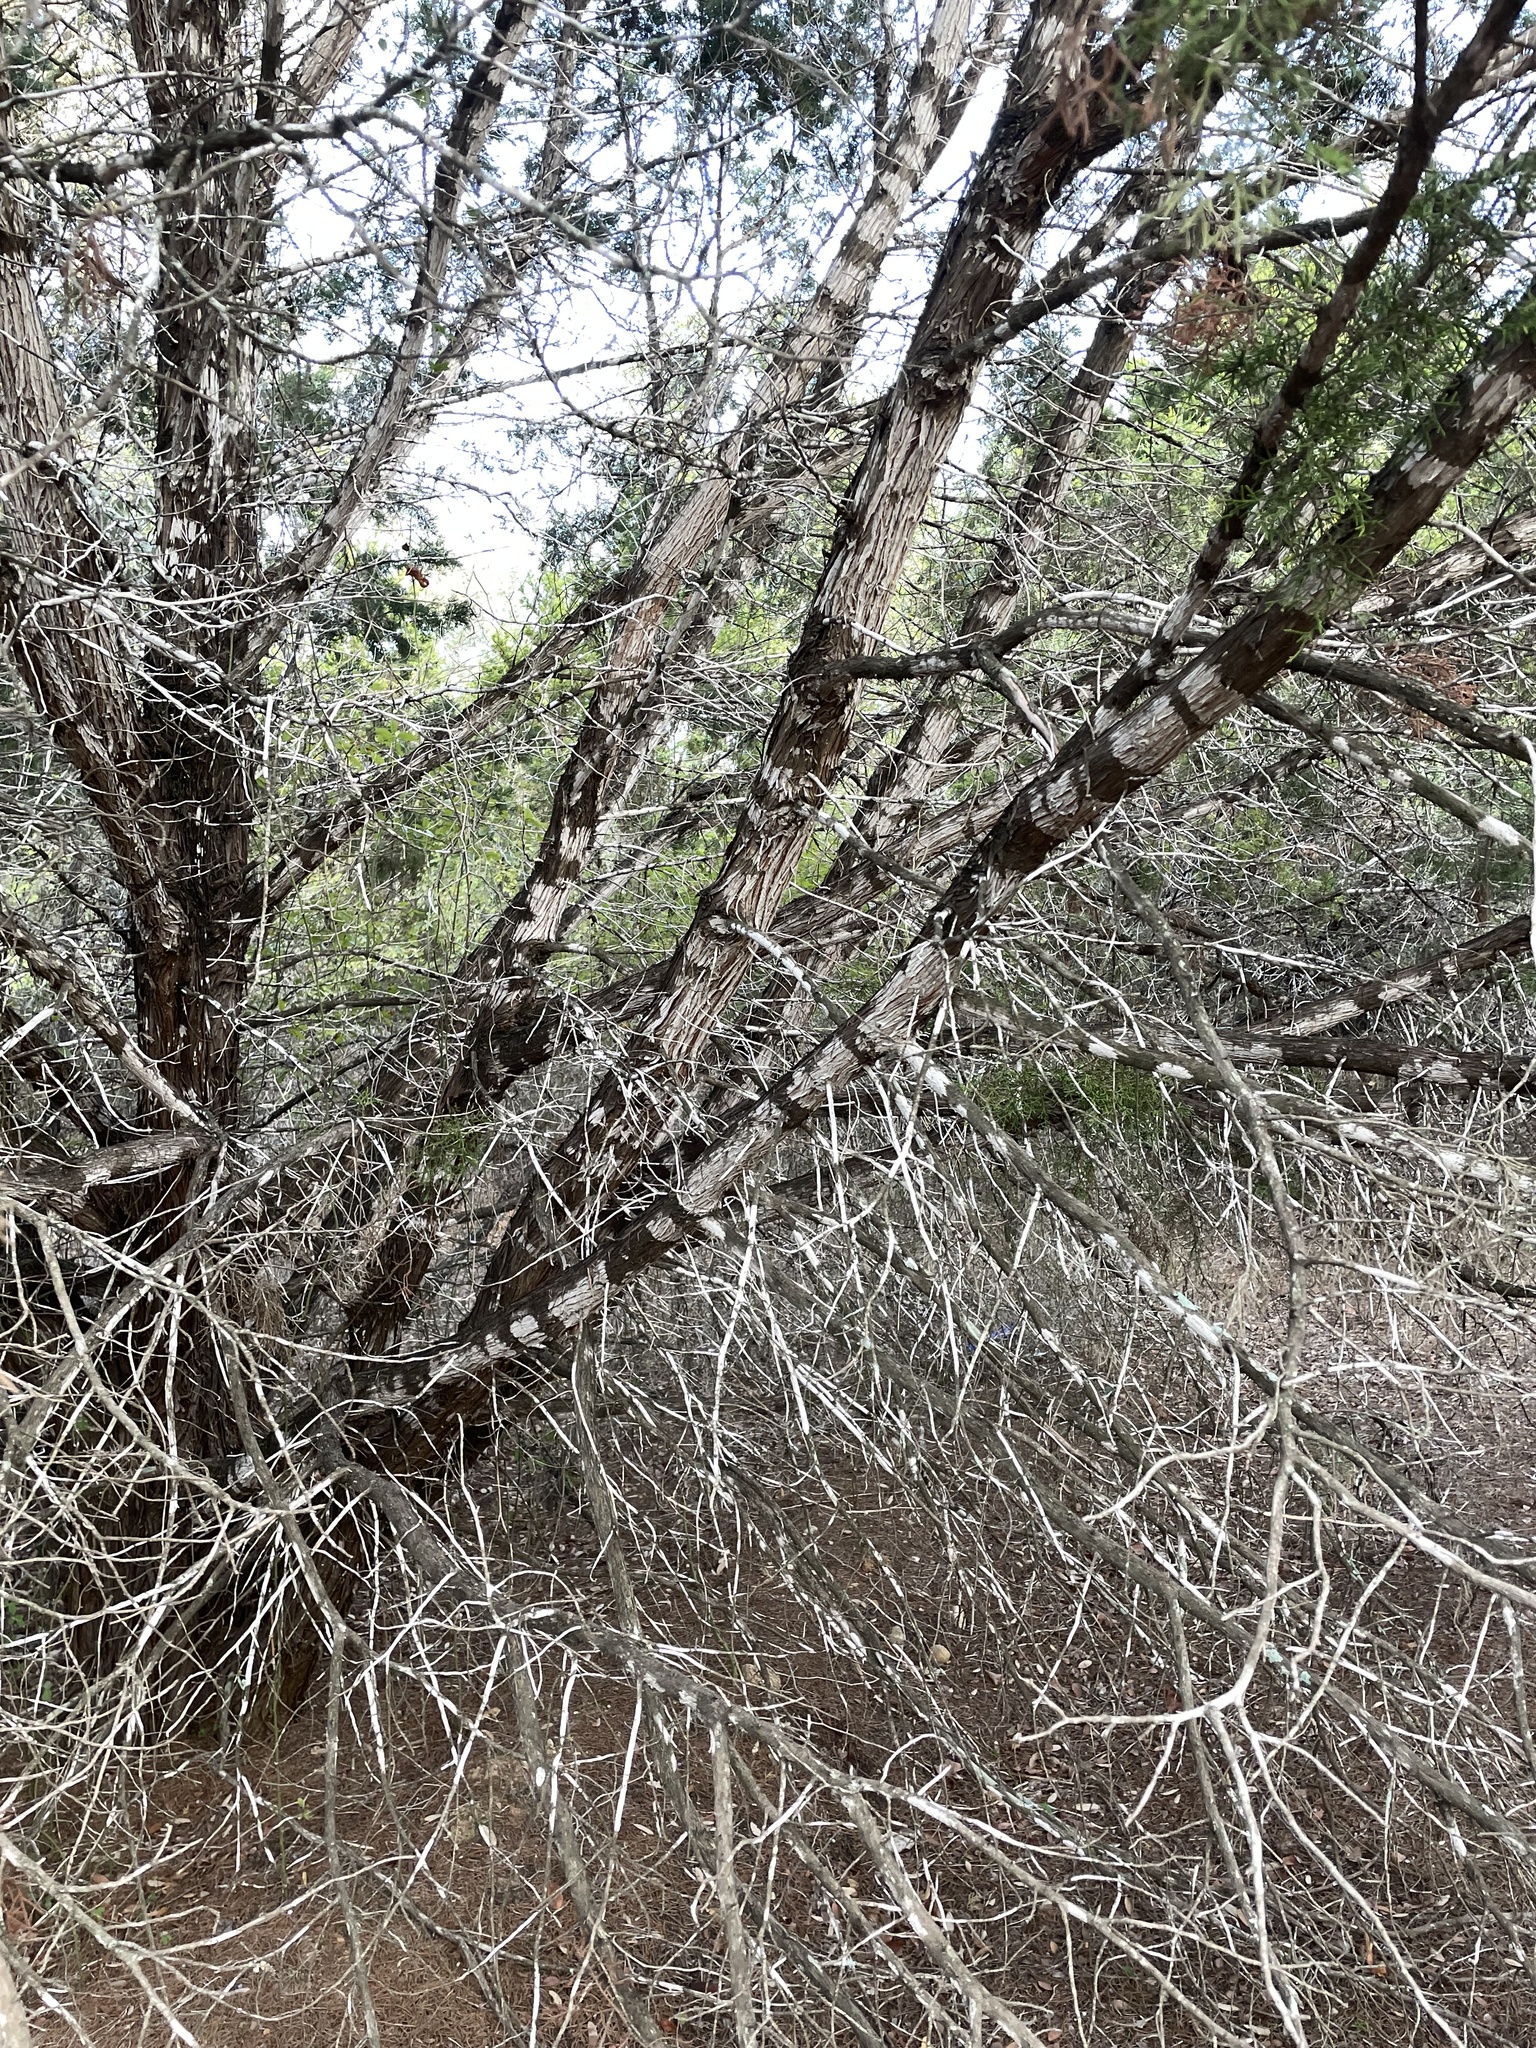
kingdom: Fungi
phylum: Ascomycota
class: Lecanoromycetes
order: Ostropales
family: Stictidaceae
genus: Robergea
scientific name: Robergea
